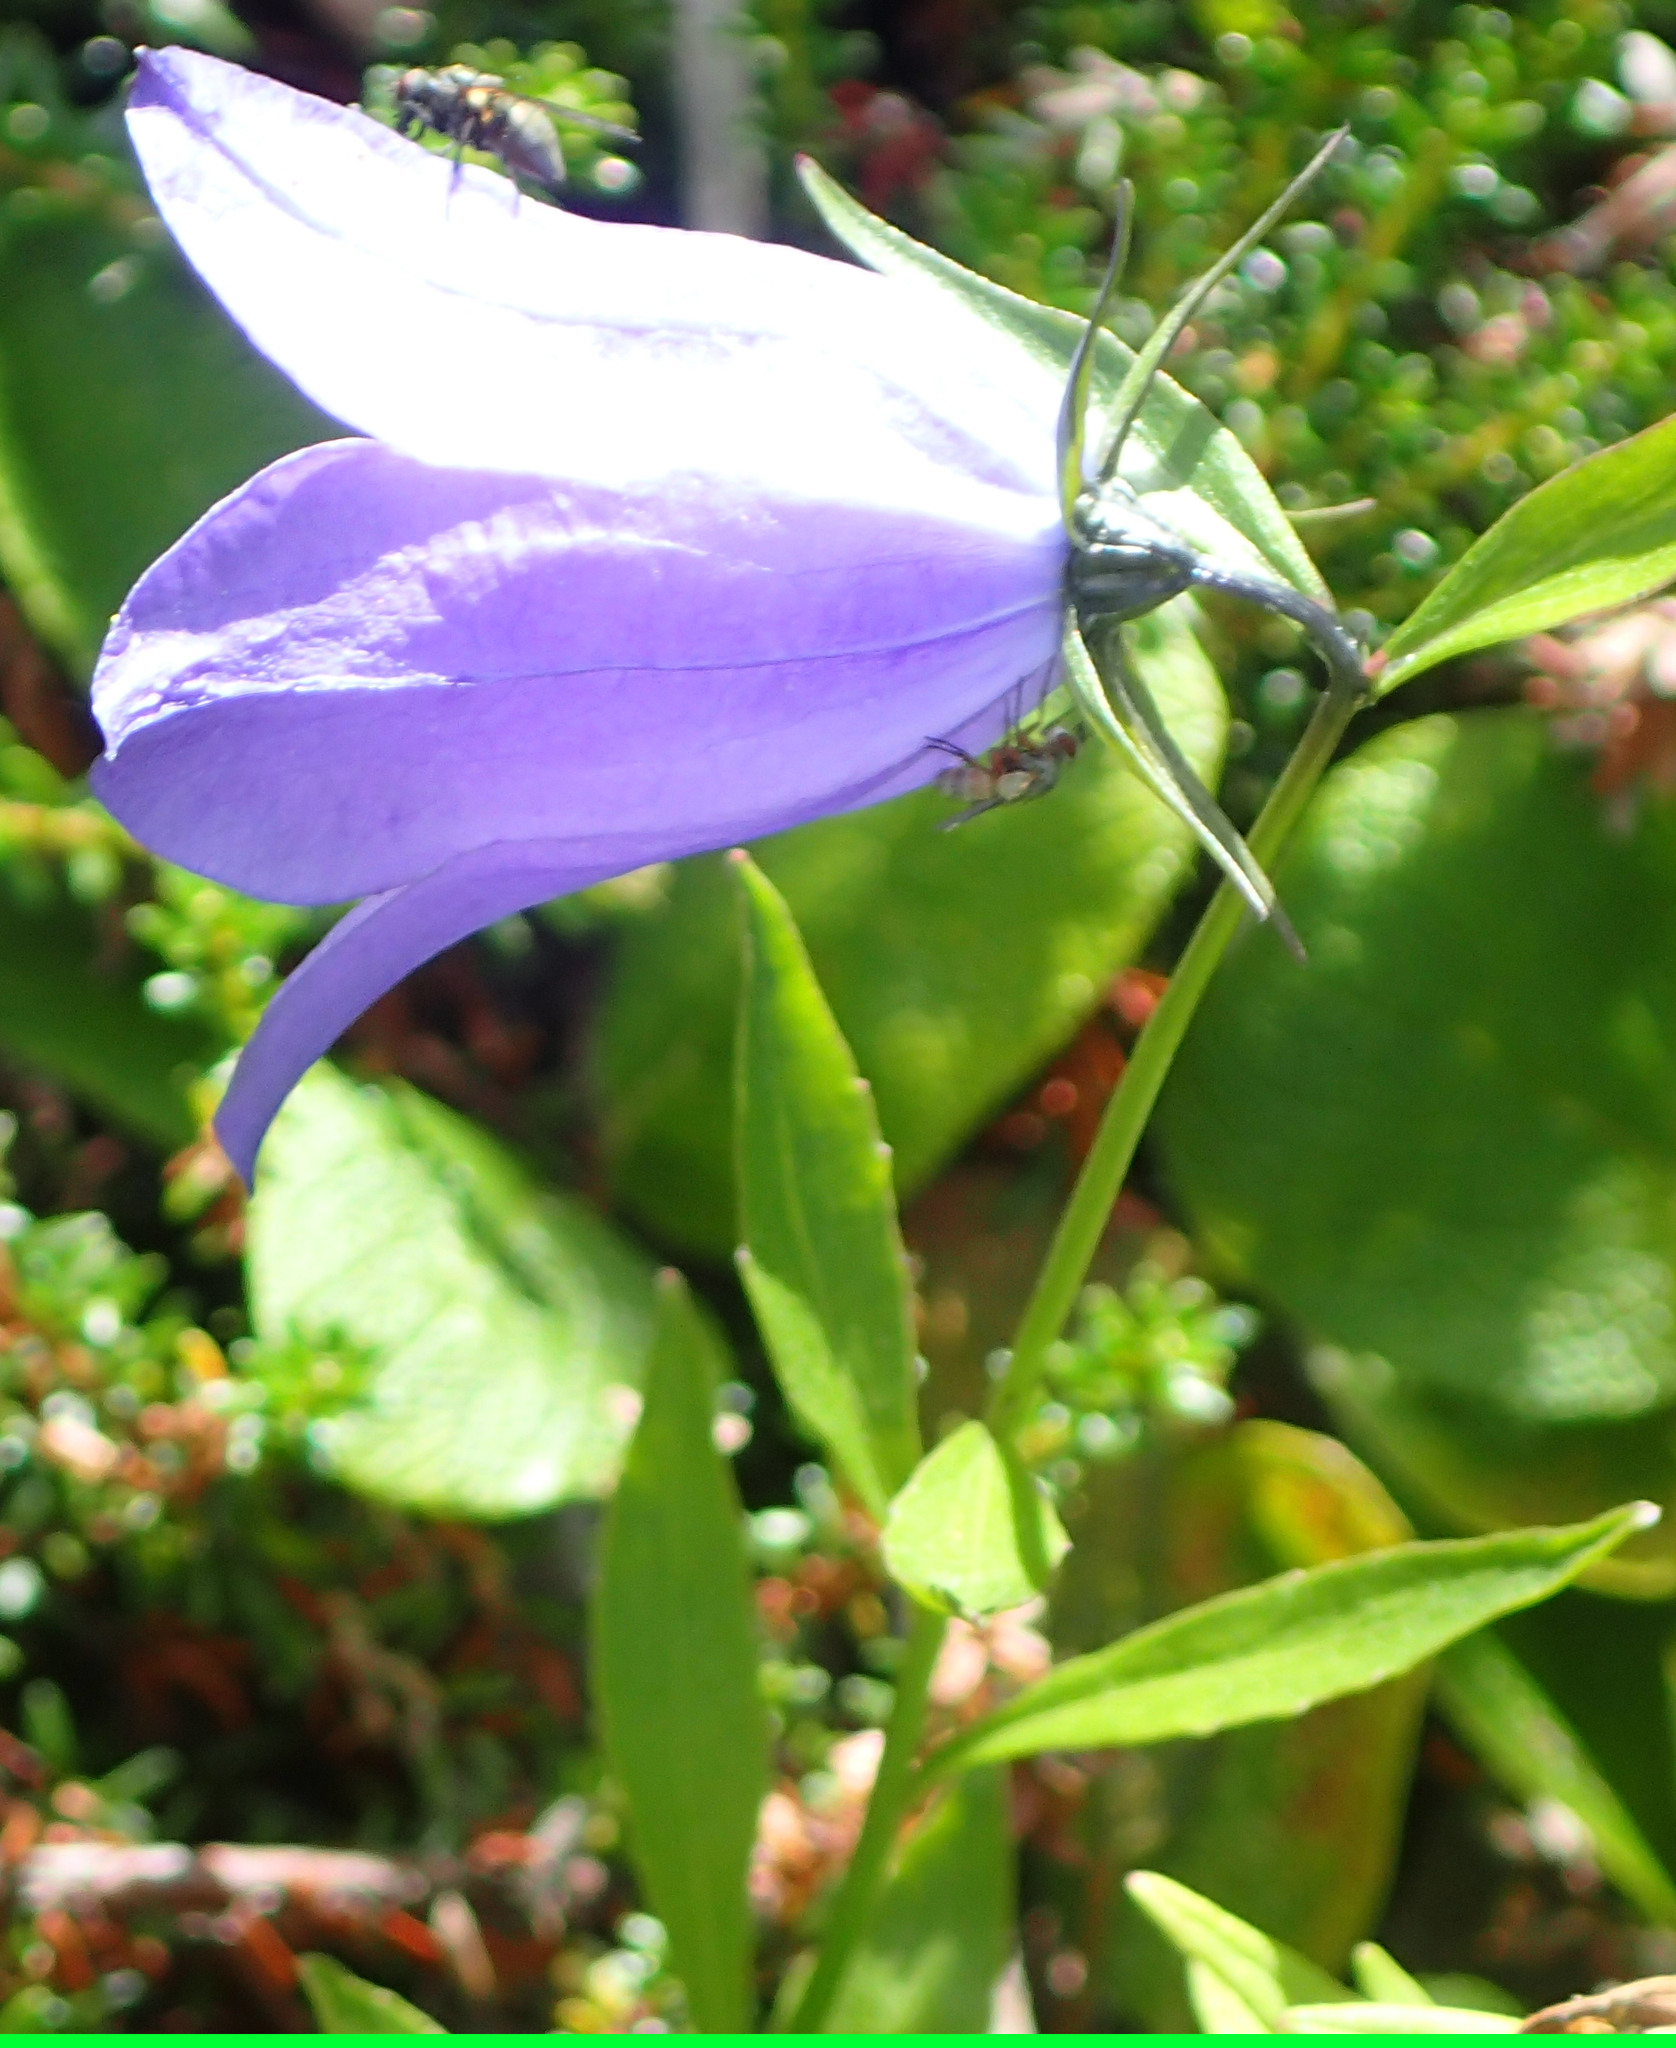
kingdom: Plantae
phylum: Tracheophyta
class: Magnoliopsida
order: Asterales
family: Campanulaceae
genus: Campanula
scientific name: Campanula alaskana
